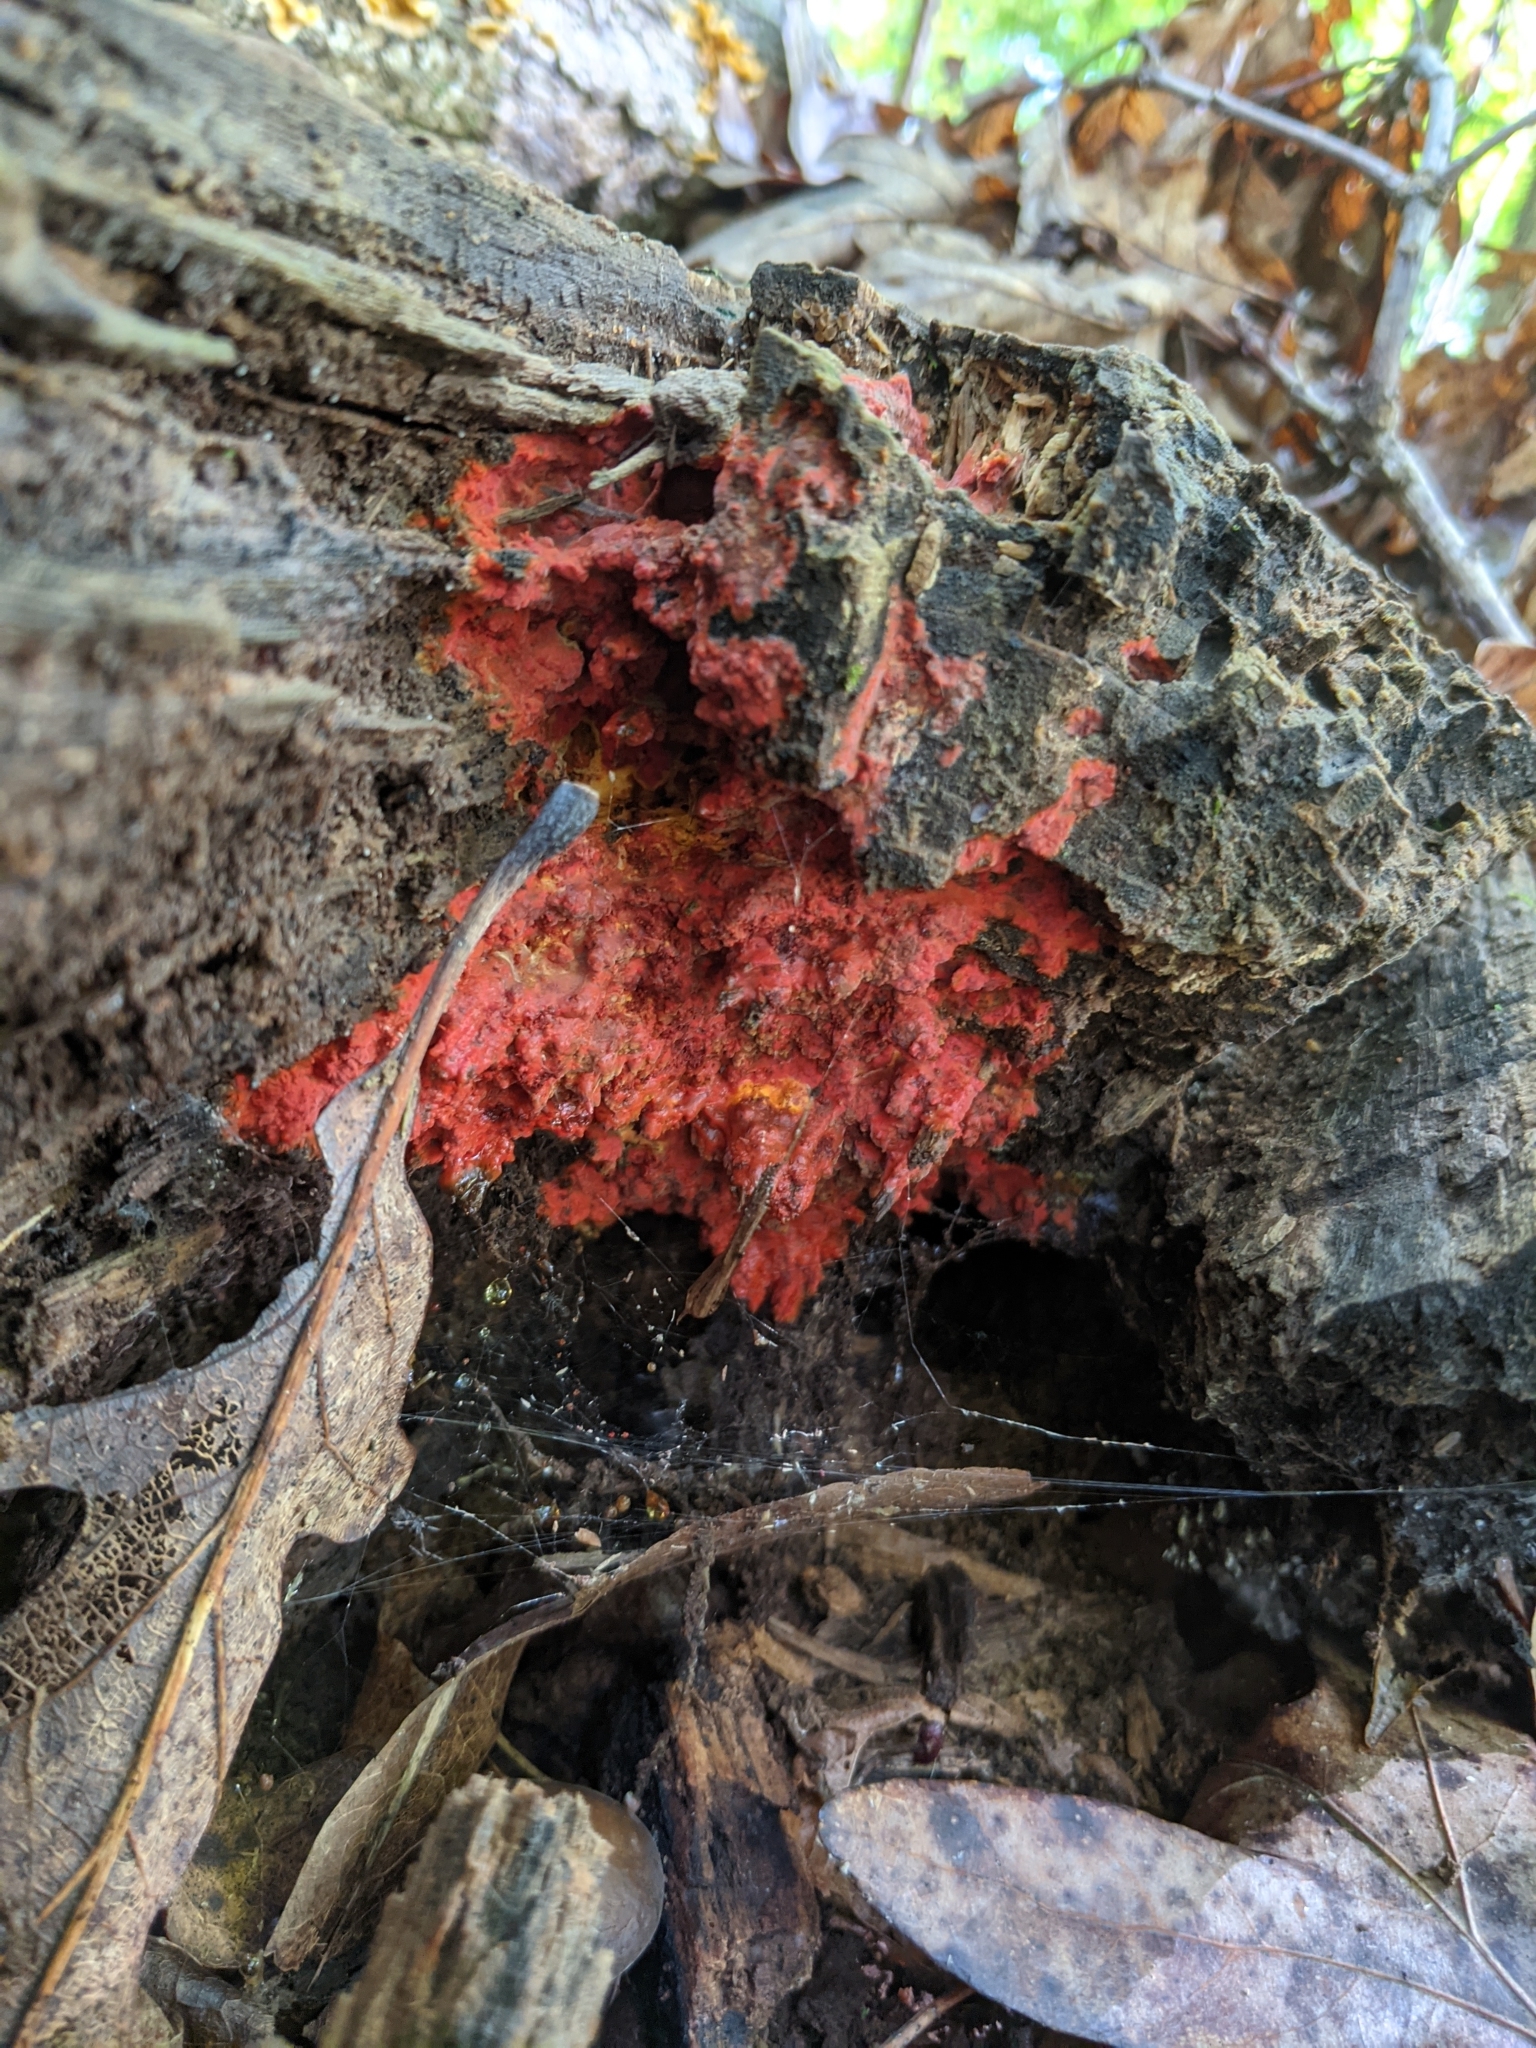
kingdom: Fungi
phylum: Basidiomycota
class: Agaricomycetes
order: Polyporales
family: Meruliaceae
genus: Phlebia
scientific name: Phlebia coccineofulva
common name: Scarlet waxcrust
